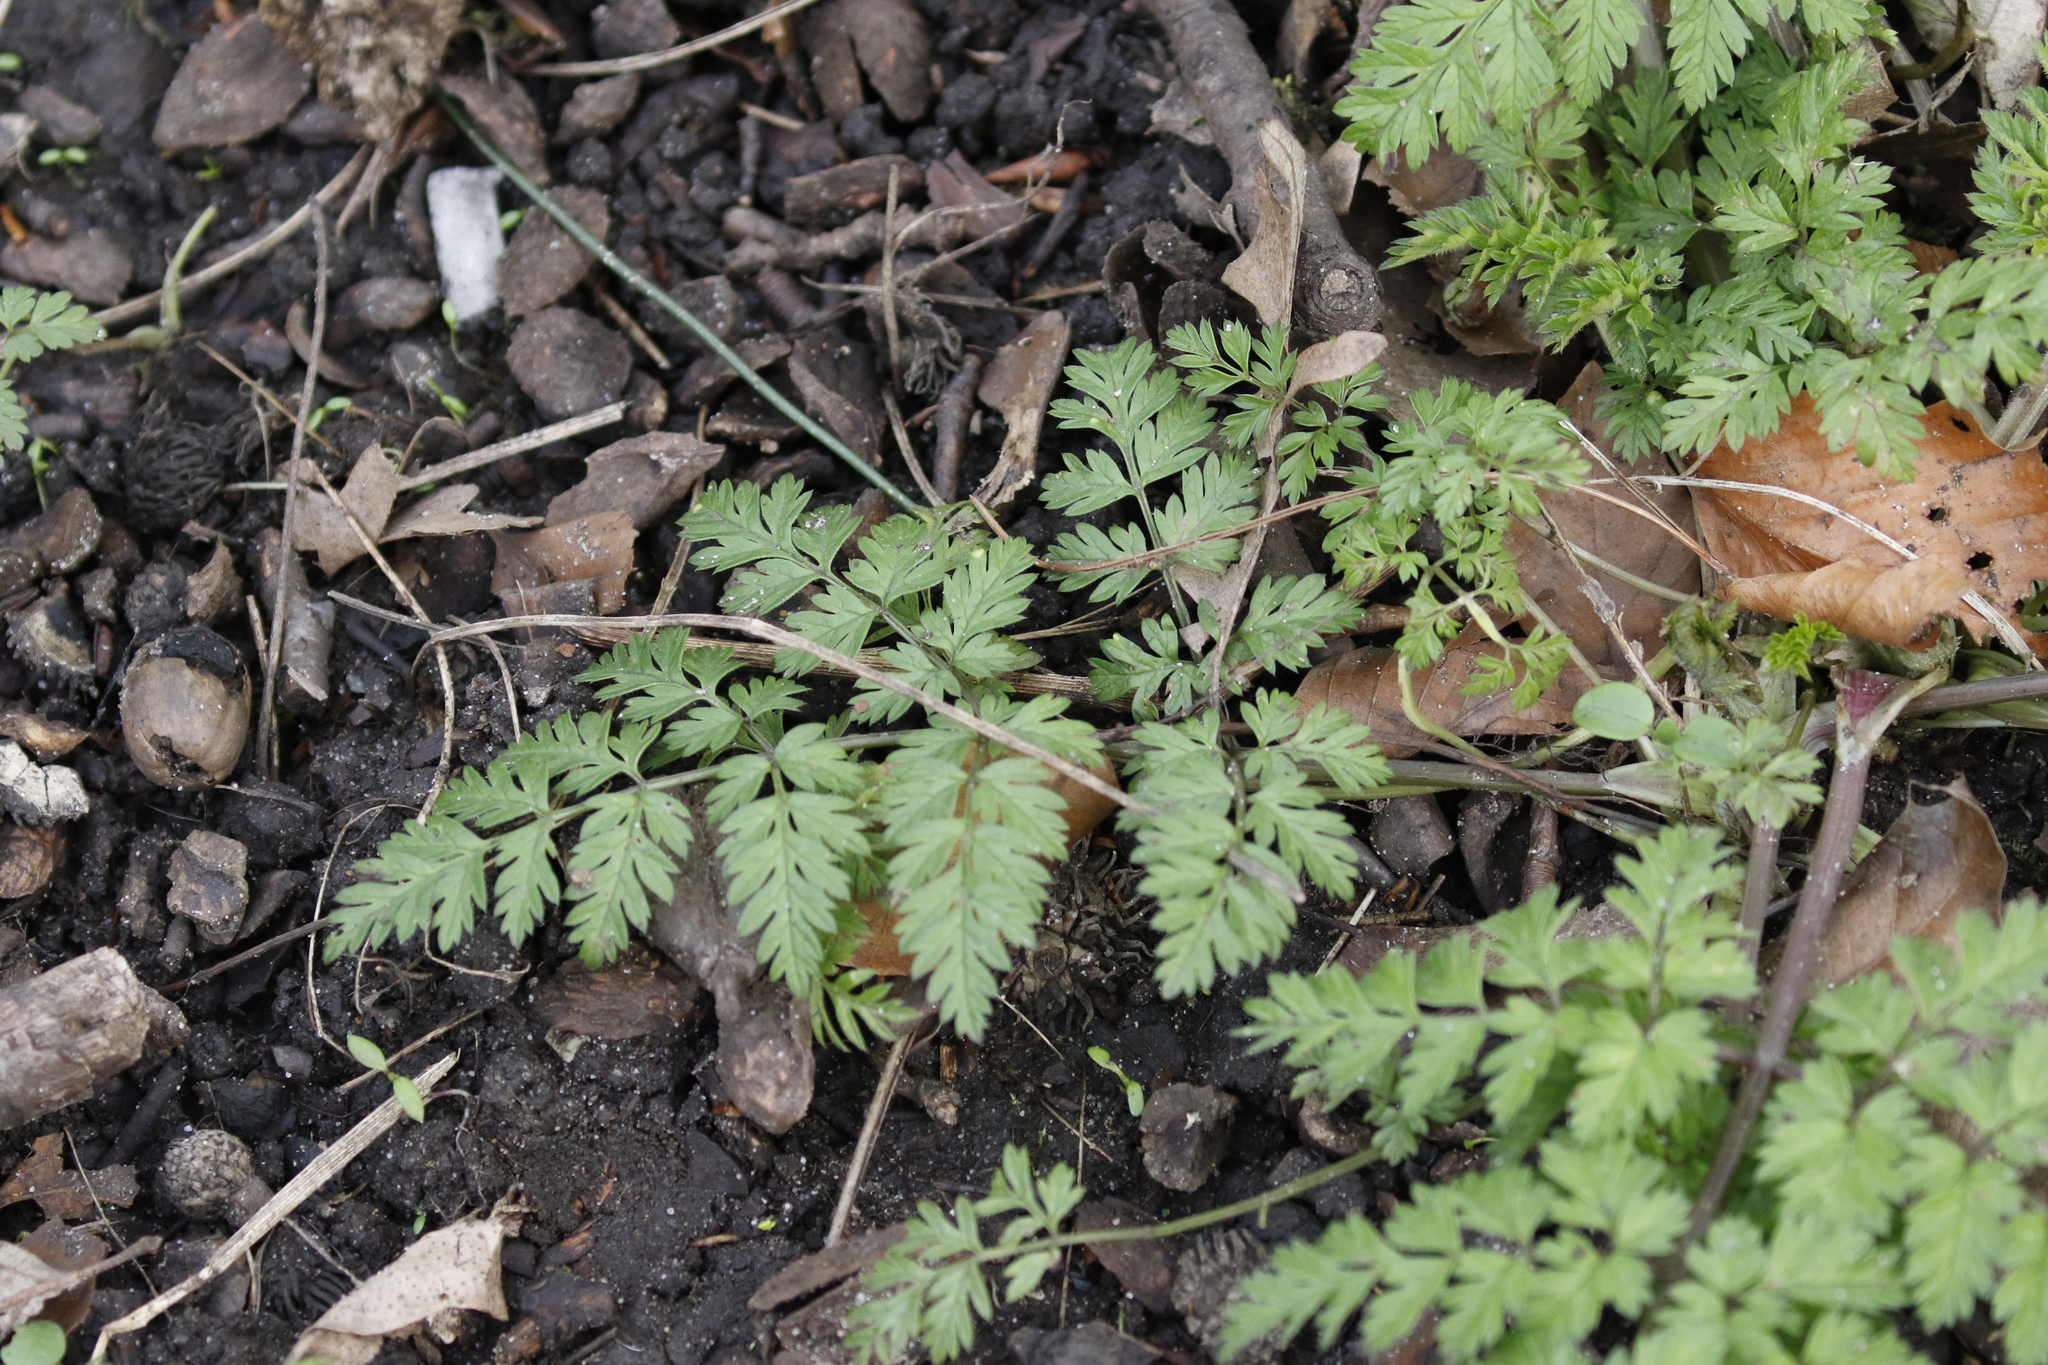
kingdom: Plantae
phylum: Tracheophyta
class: Magnoliopsida
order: Apiales
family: Apiaceae
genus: Anthriscus
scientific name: Anthriscus sylvestris
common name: Cow parsley
